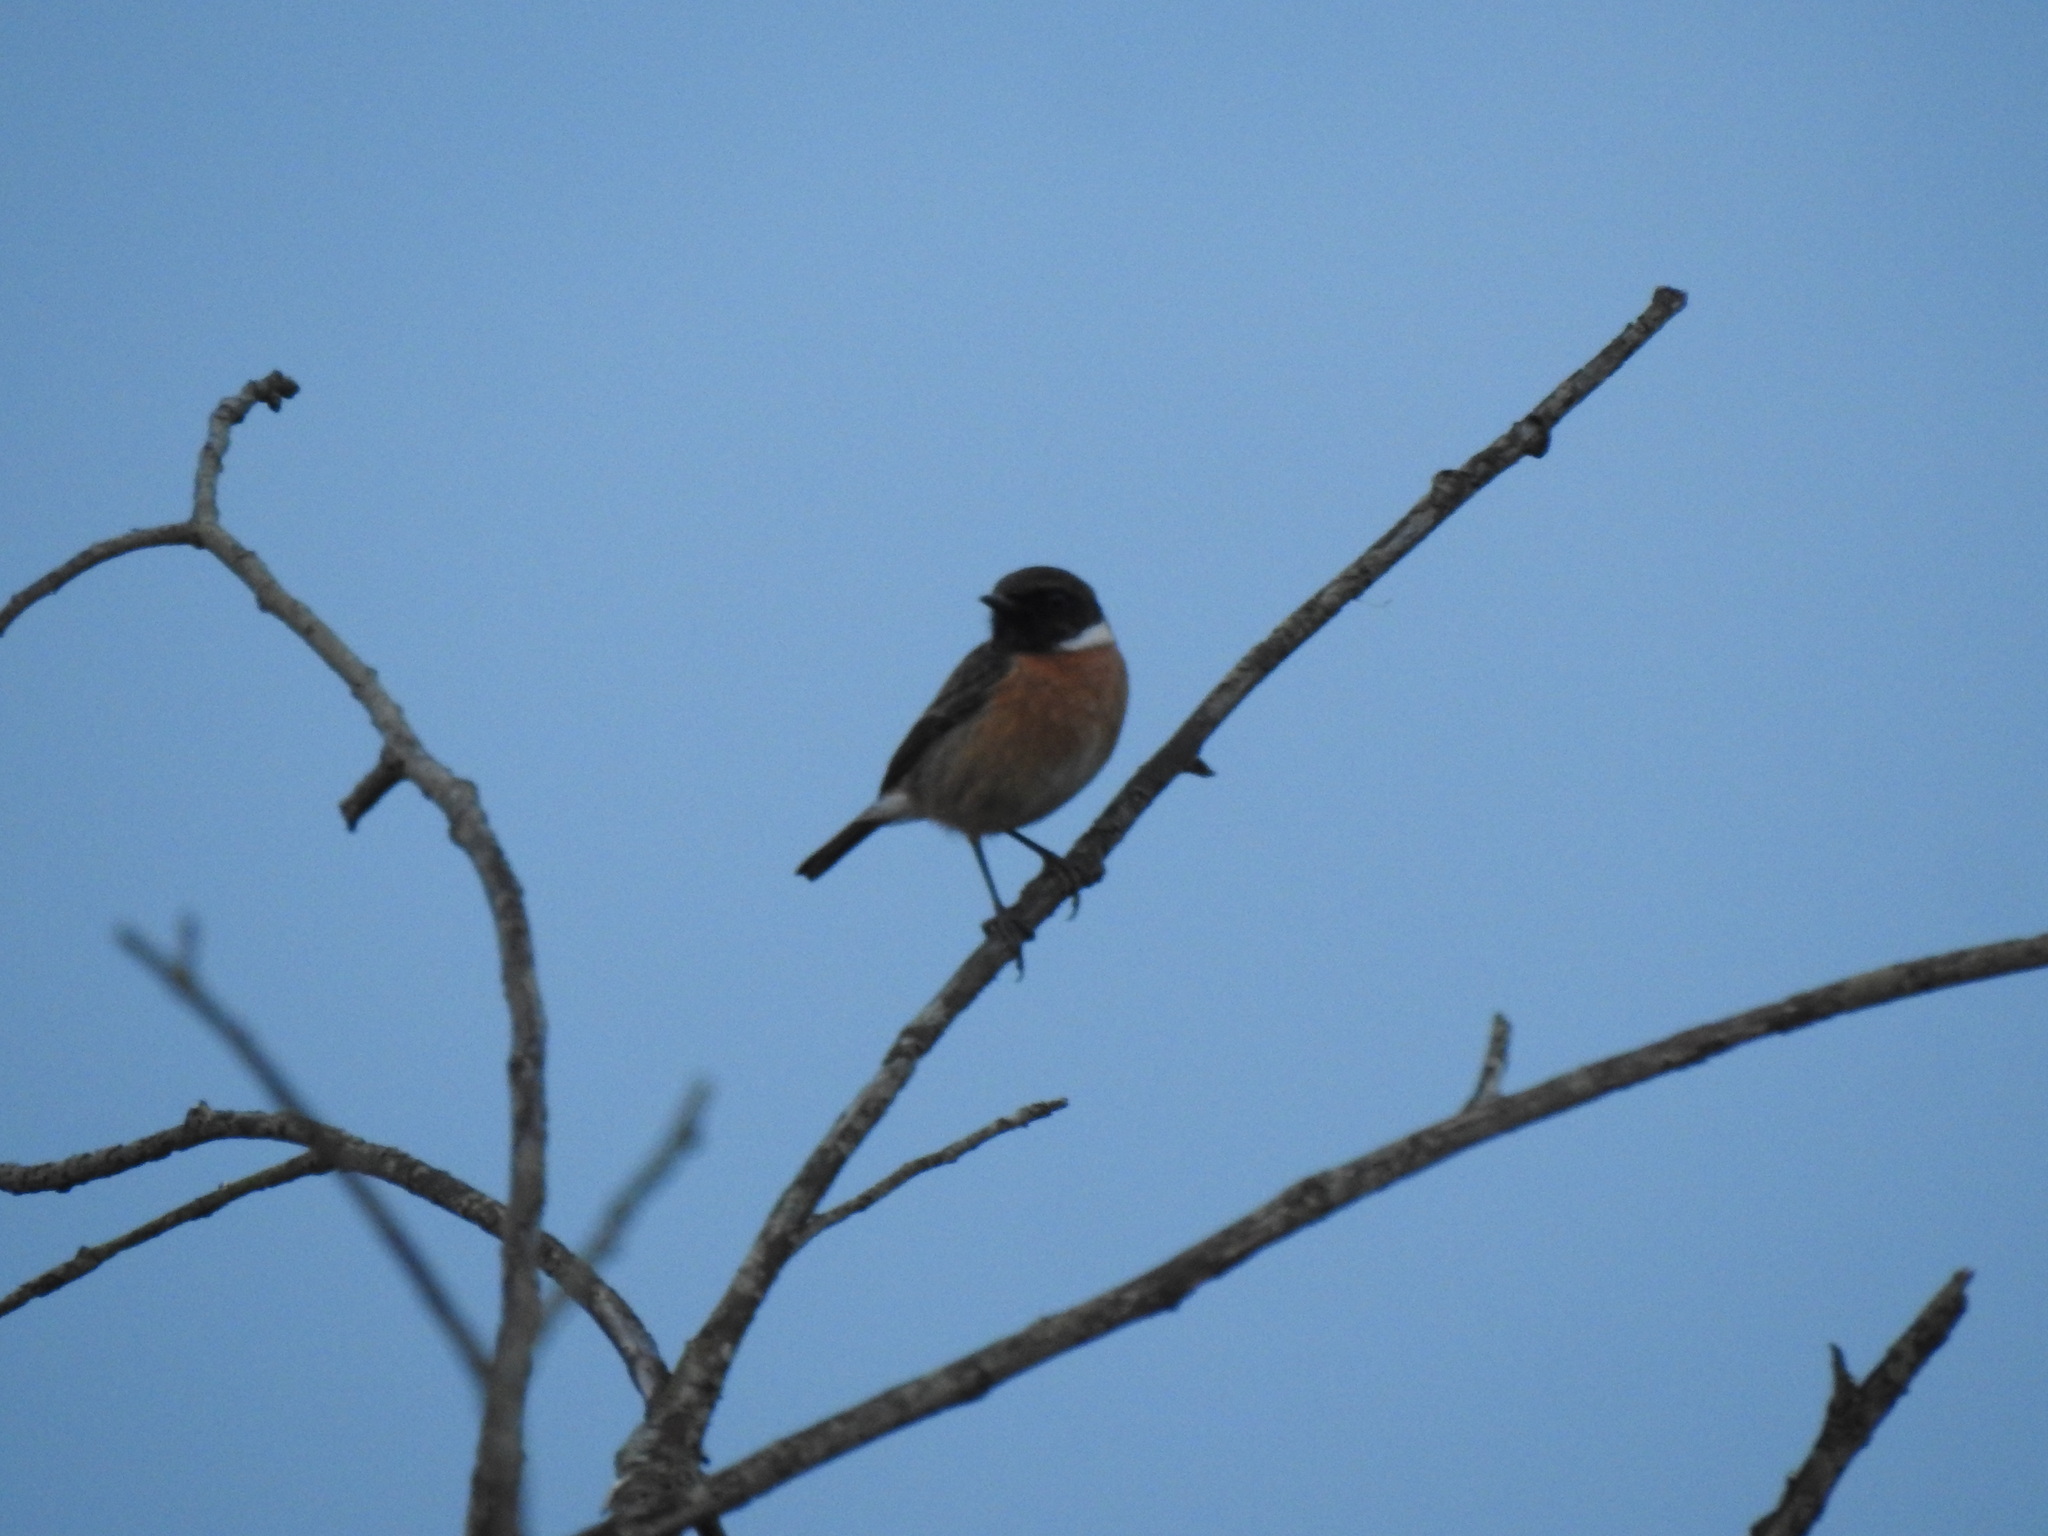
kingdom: Animalia
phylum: Chordata
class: Aves
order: Passeriformes
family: Muscicapidae
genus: Saxicola
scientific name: Saxicola rubicola
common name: European stonechat
